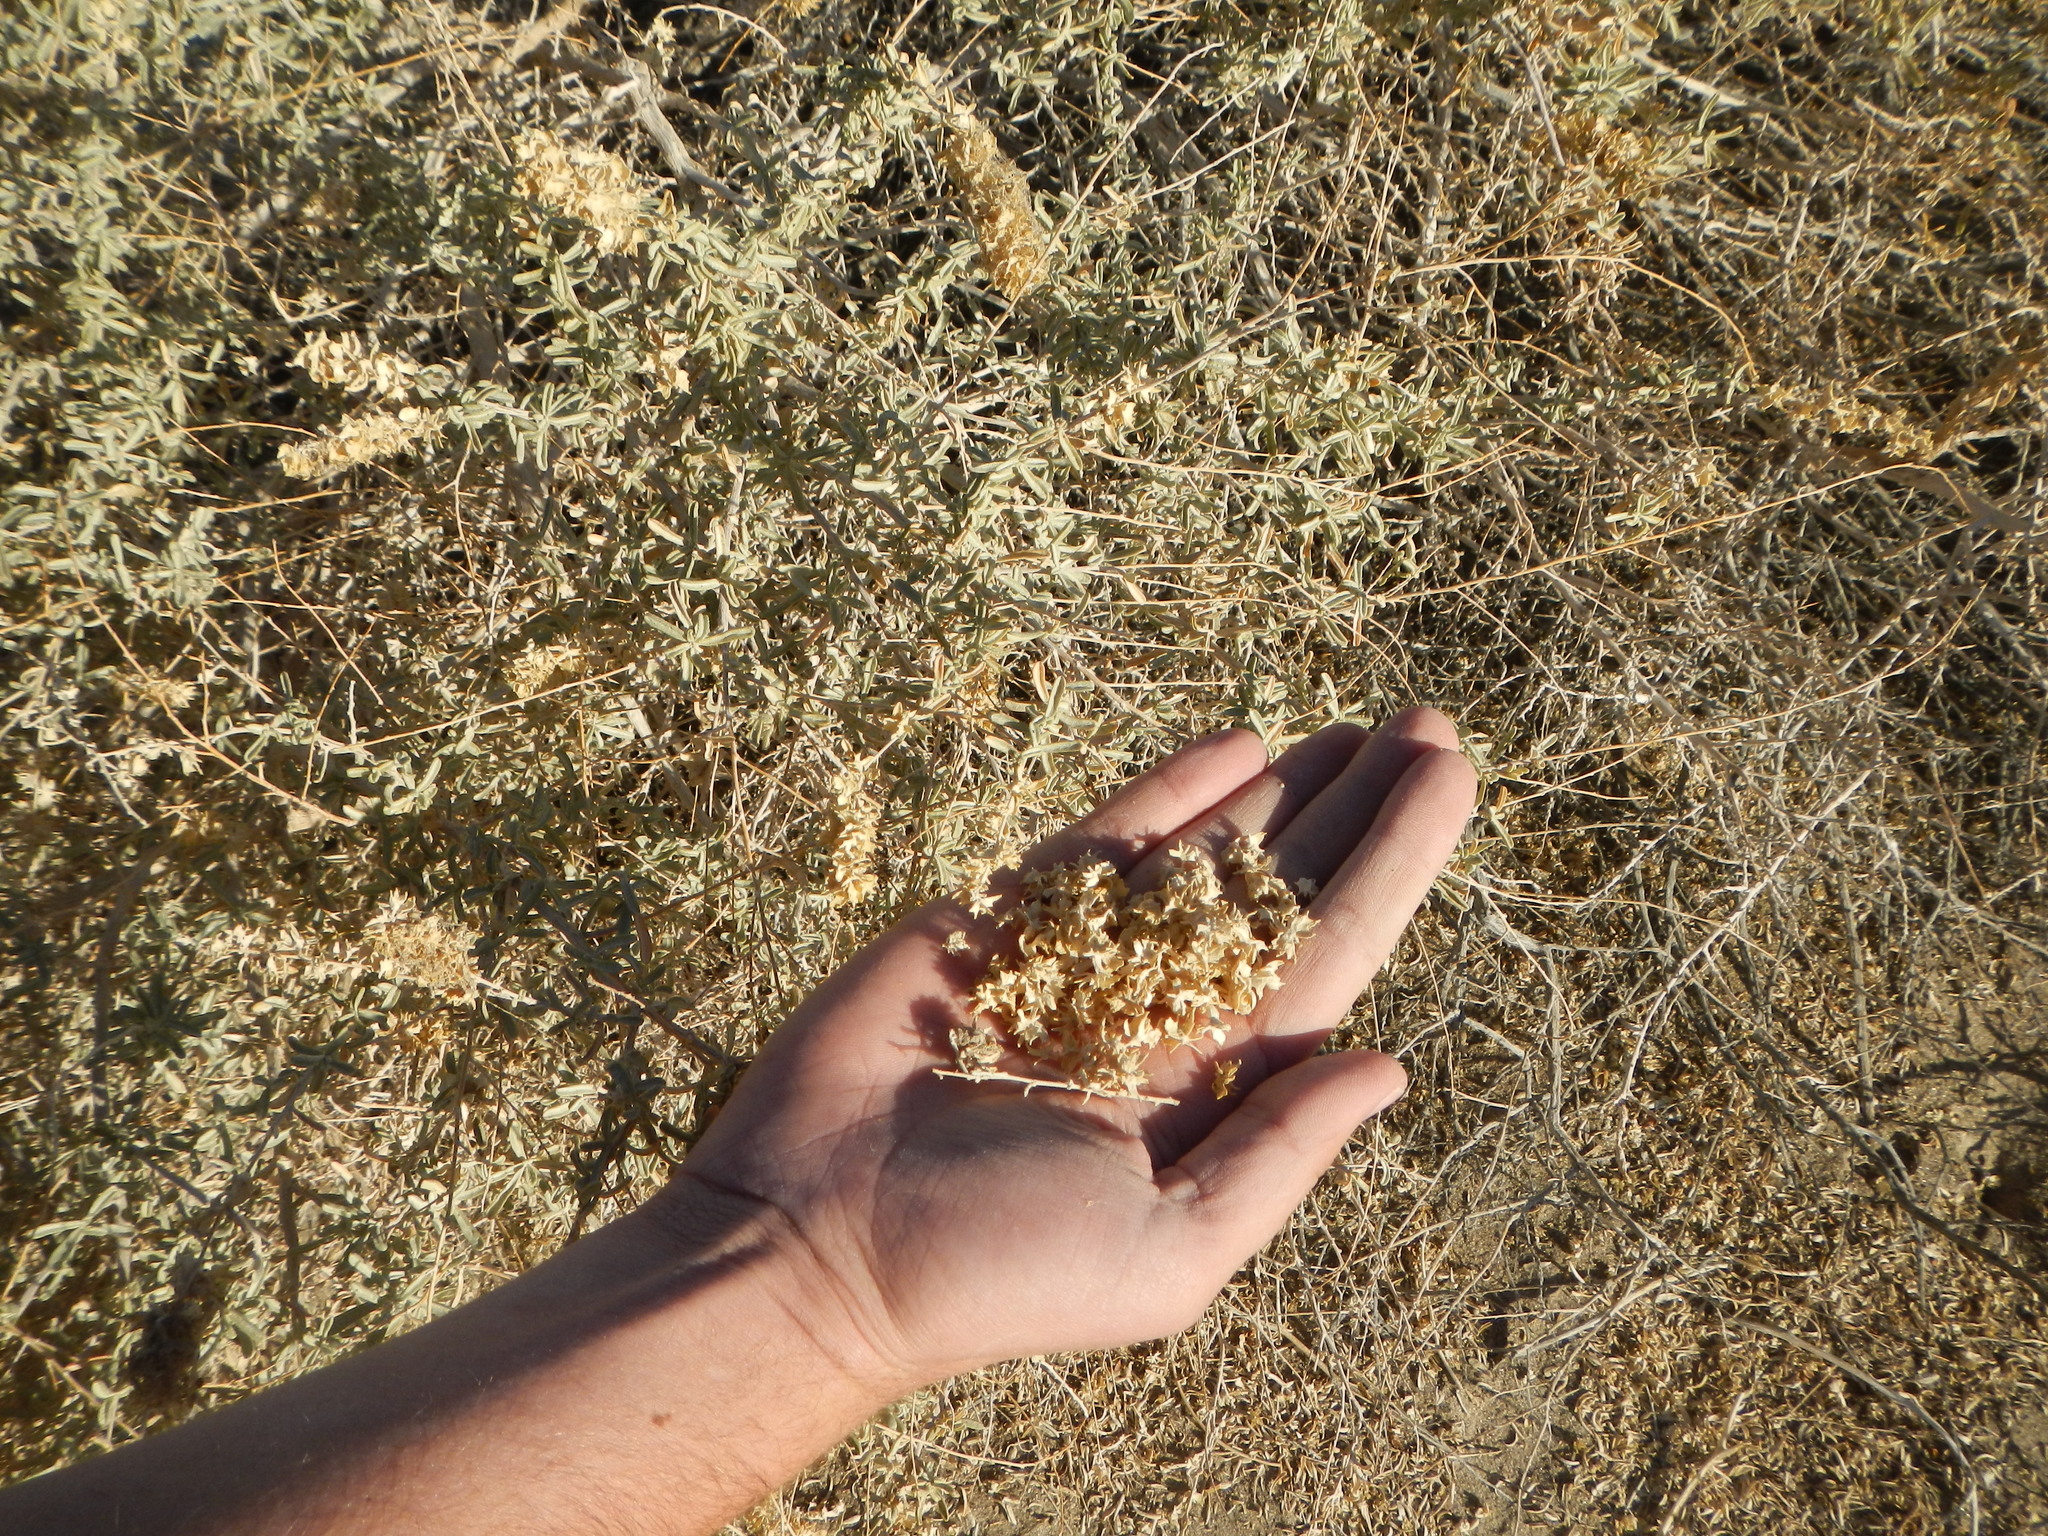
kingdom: Plantae
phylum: Tracheophyta
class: Magnoliopsida
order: Caryophyllales
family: Amaranthaceae
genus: Atriplex
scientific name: Atriplex canescens
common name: Four-wing saltbush
